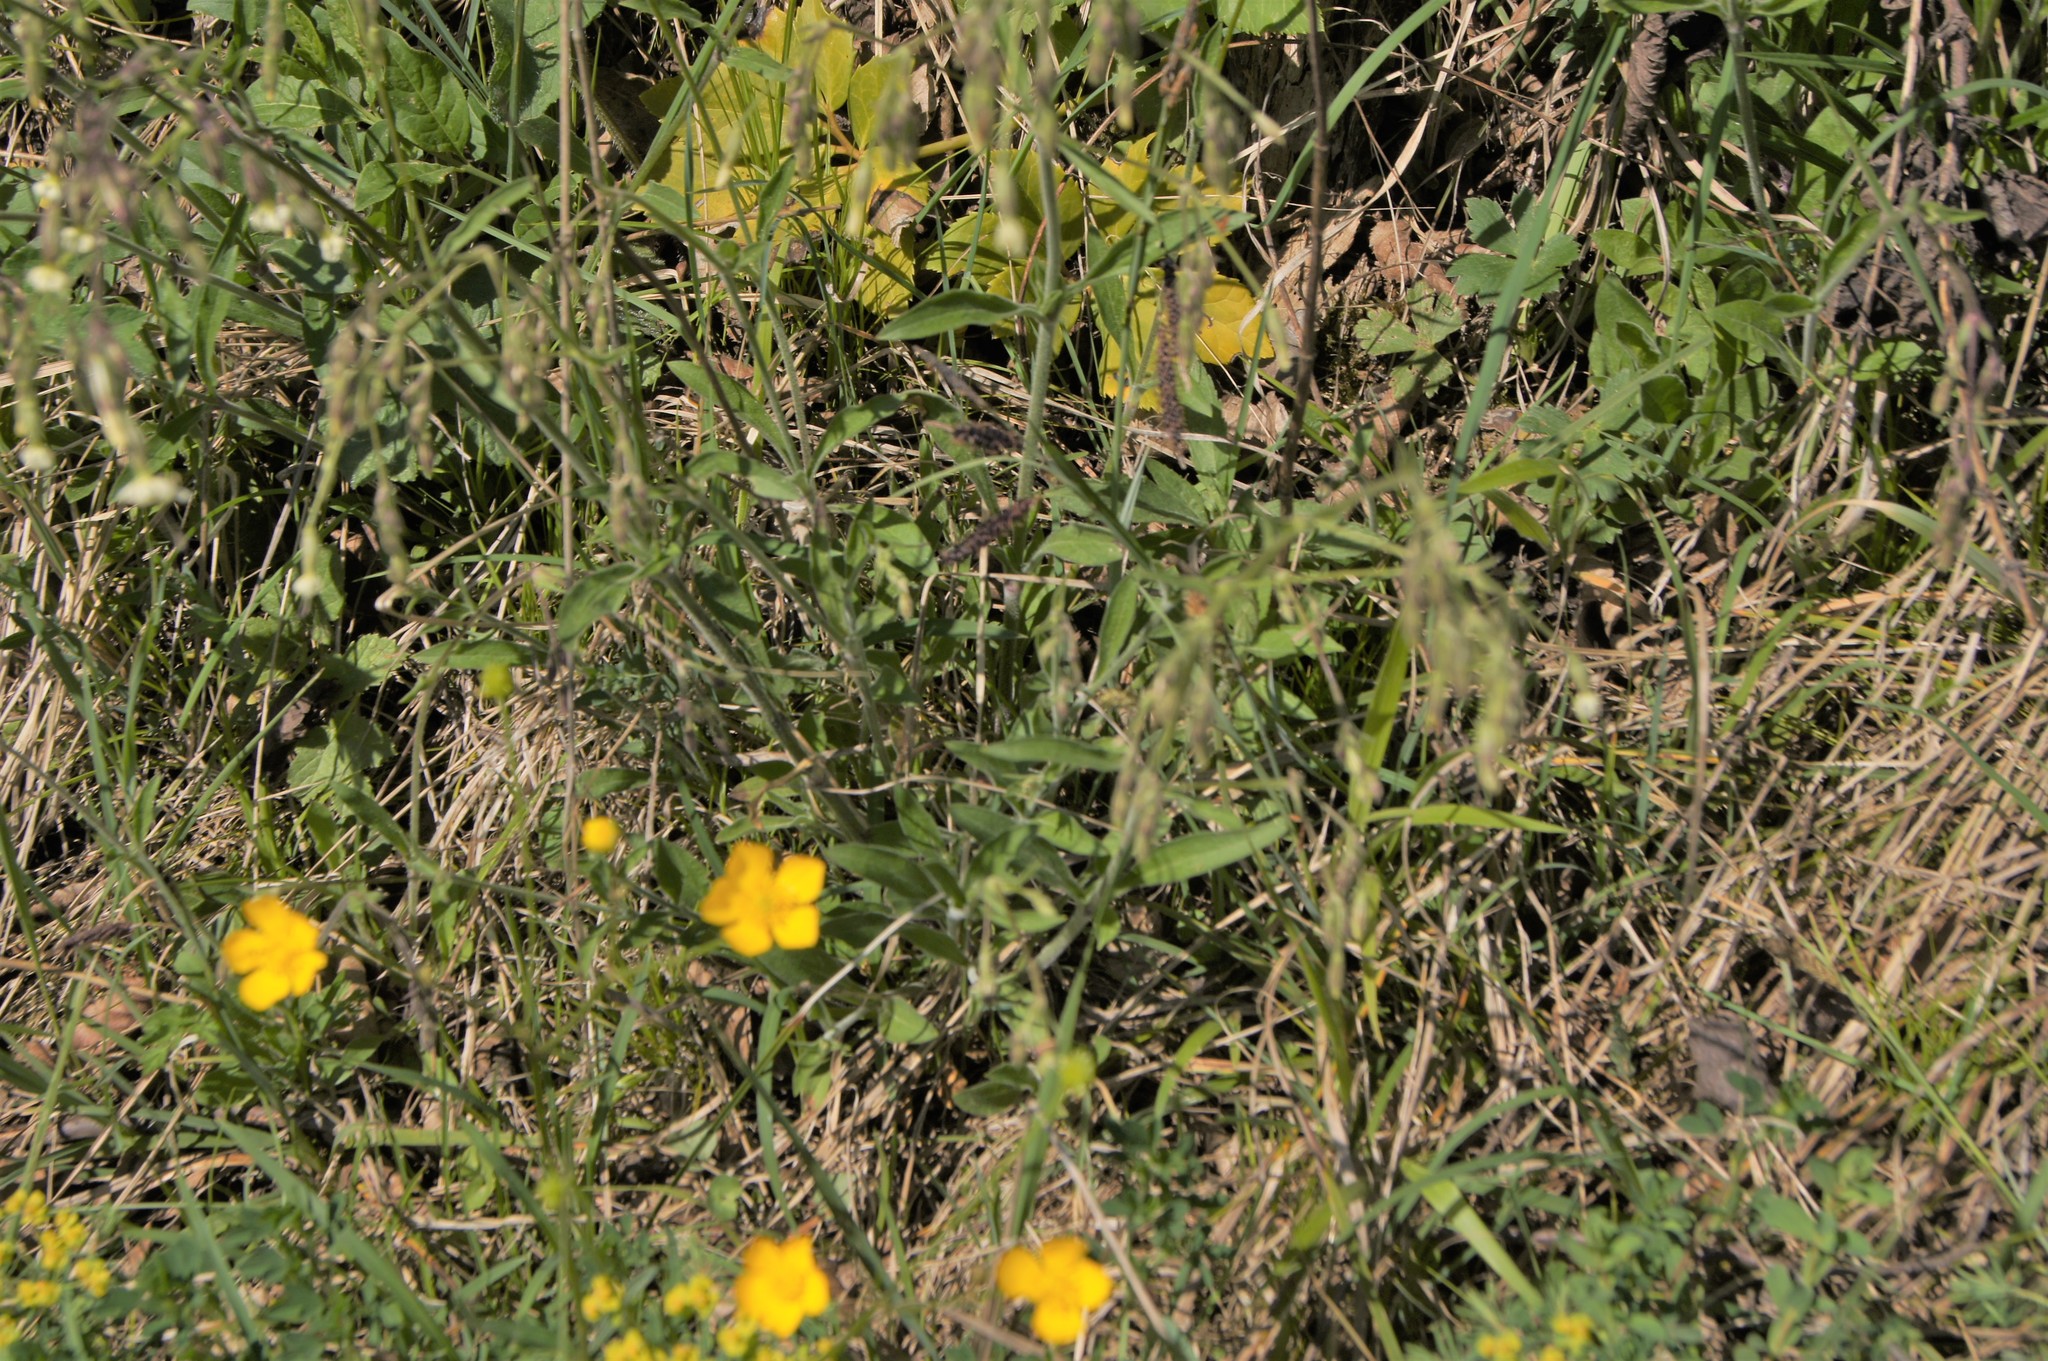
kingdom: Plantae
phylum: Tracheophyta
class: Magnoliopsida
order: Caryophyllales
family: Caryophyllaceae
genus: Silene
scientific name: Silene nutans
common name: Nottingham catchfly
